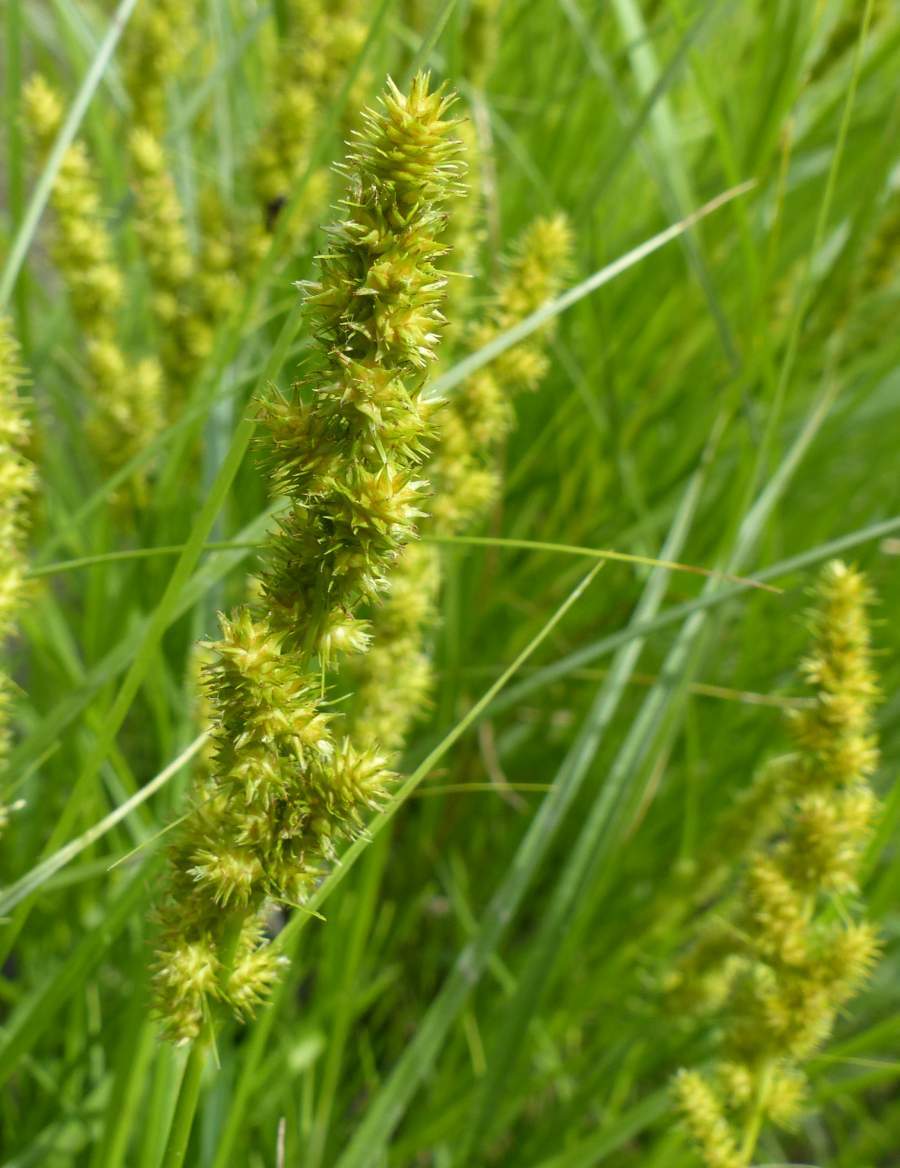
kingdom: Plantae
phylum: Tracheophyta
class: Liliopsida
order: Poales
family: Cyperaceae
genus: Carex
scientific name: Carex vulpinoidea
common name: American fox-sedge
